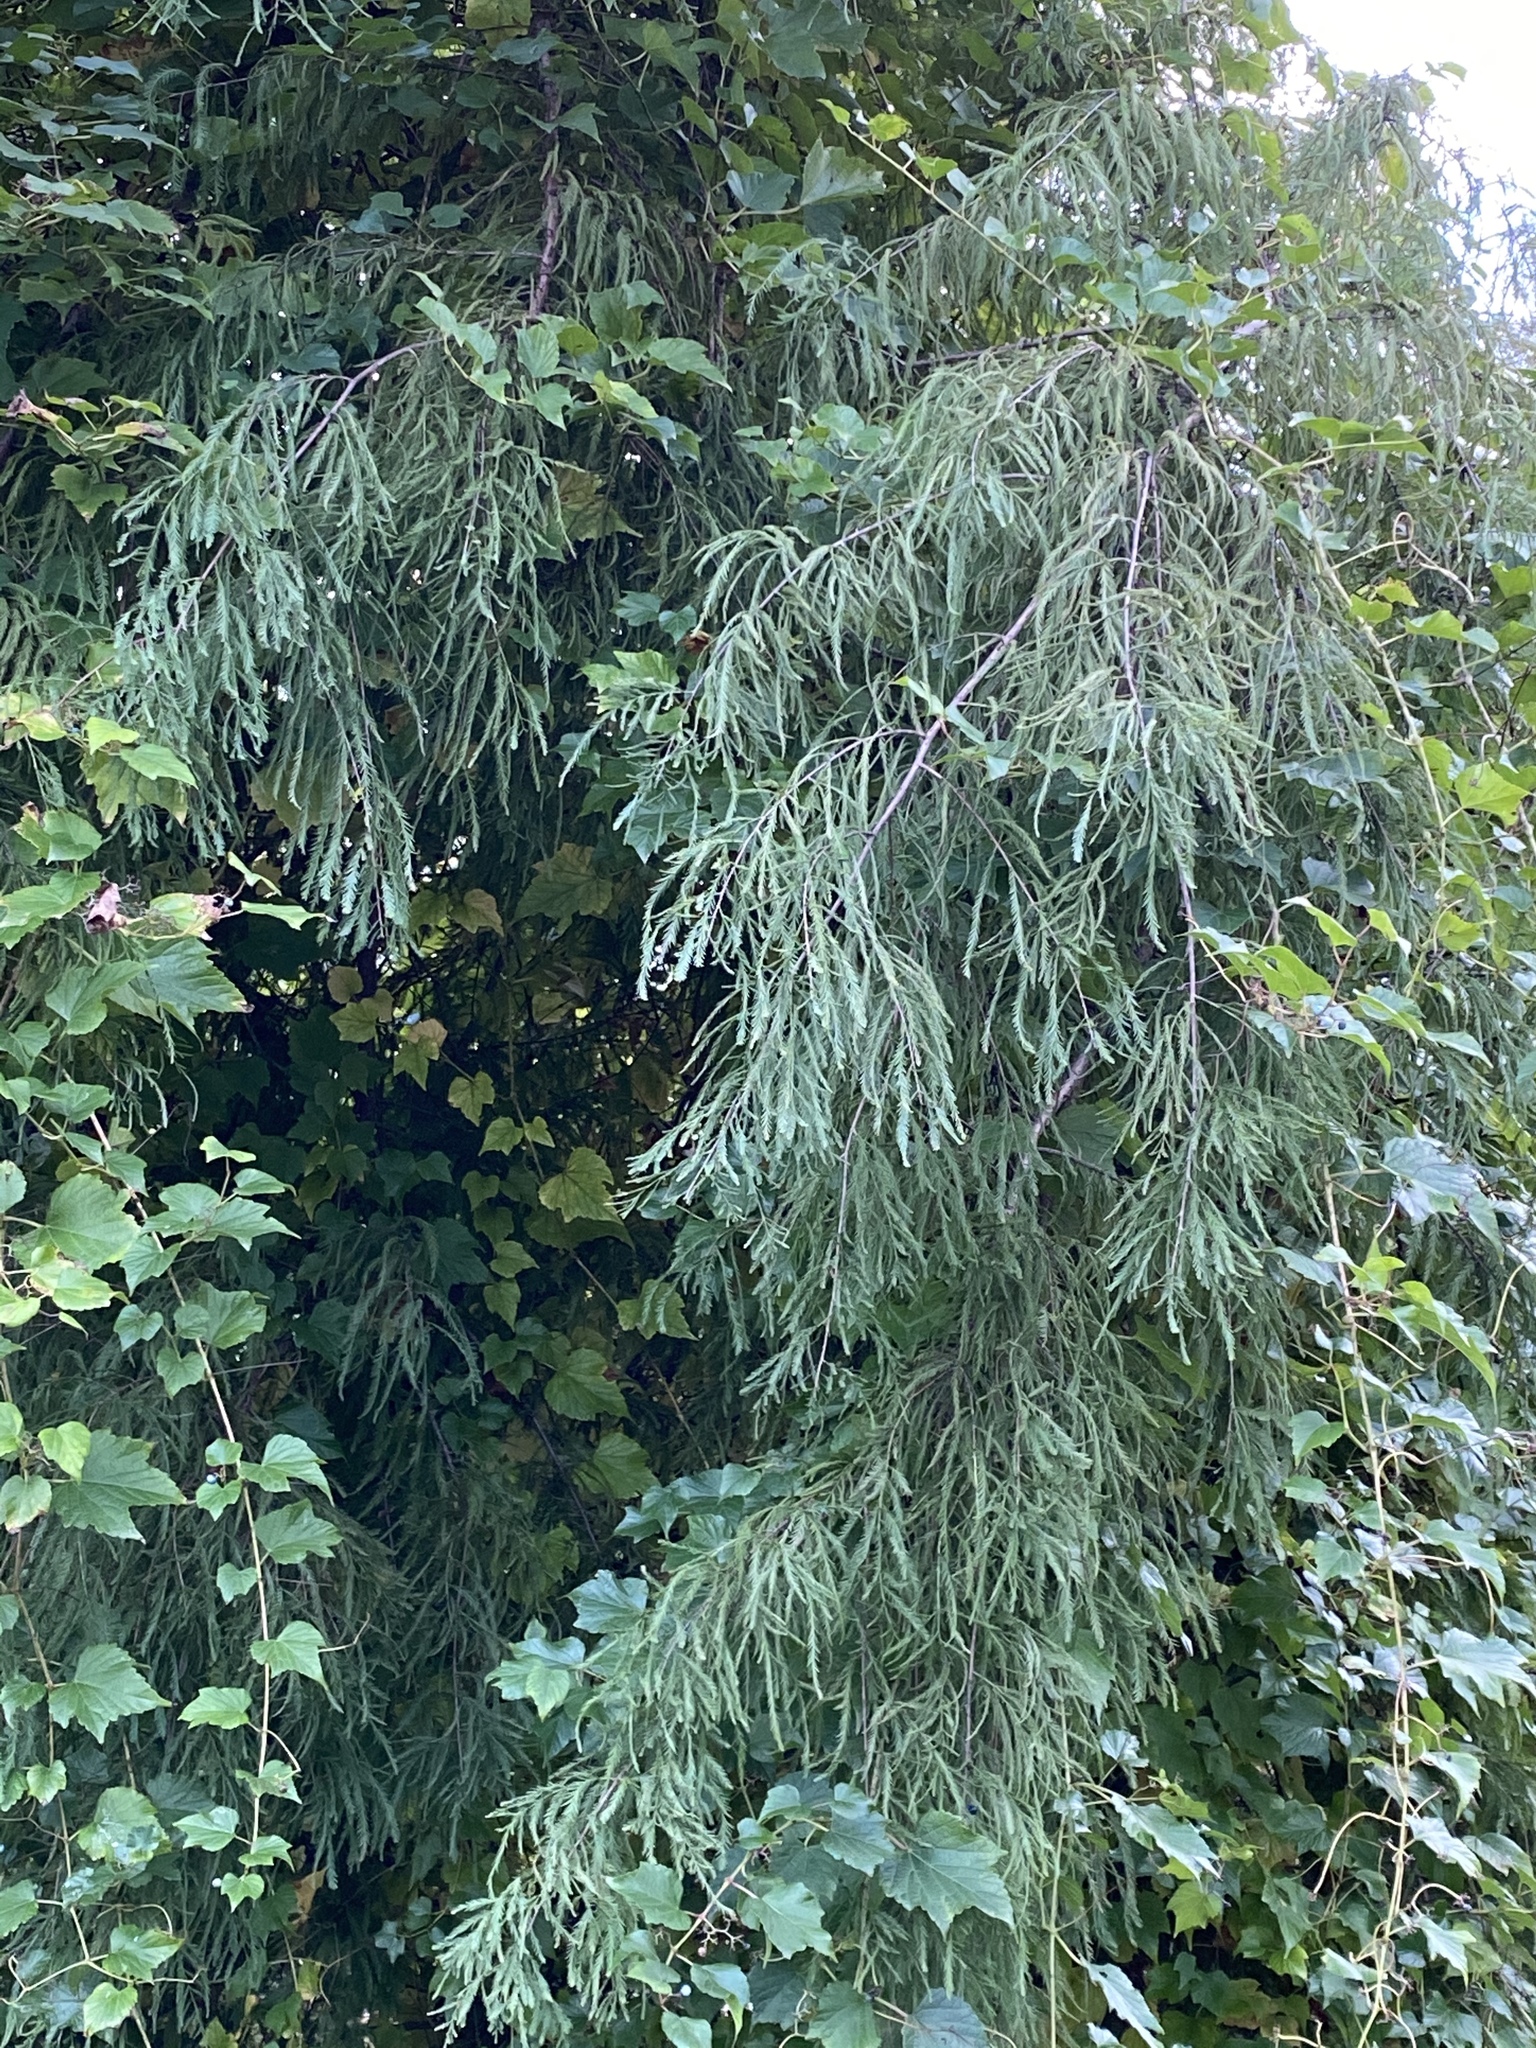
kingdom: Plantae
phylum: Tracheophyta
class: Pinopsida
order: Pinales
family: Cupressaceae
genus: Taxodium
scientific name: Taxodium distichum
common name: Bald cypress
